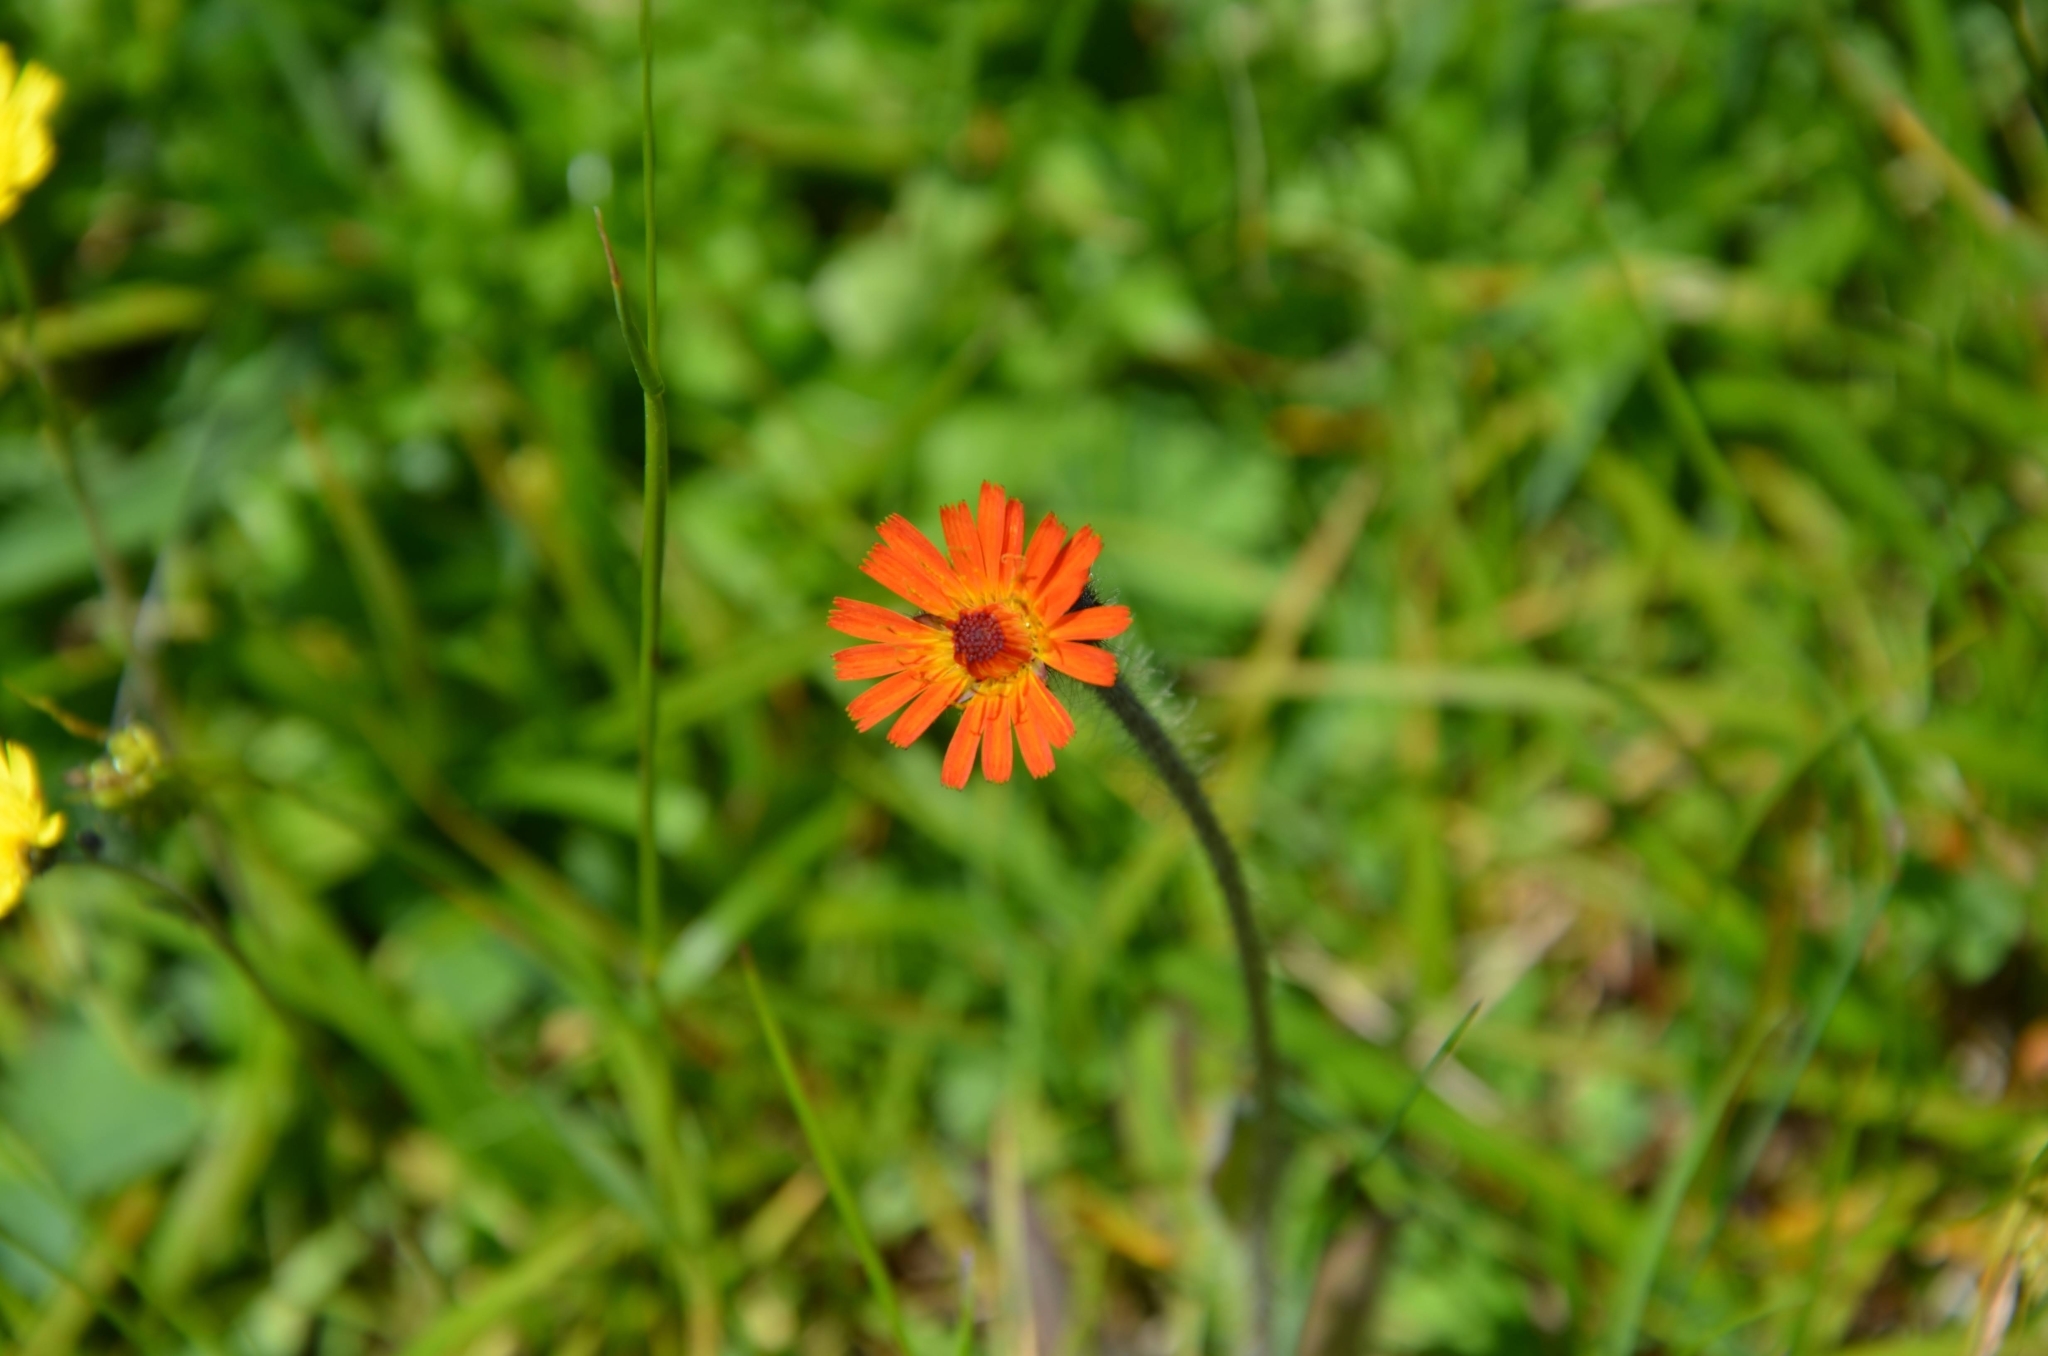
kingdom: Plantae
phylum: Tracheophyta
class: Magnoliopsida
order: Asterales
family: Asteraceae
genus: Pilosella
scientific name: Pilosella aurantiaca
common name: Fox-and-cubs
